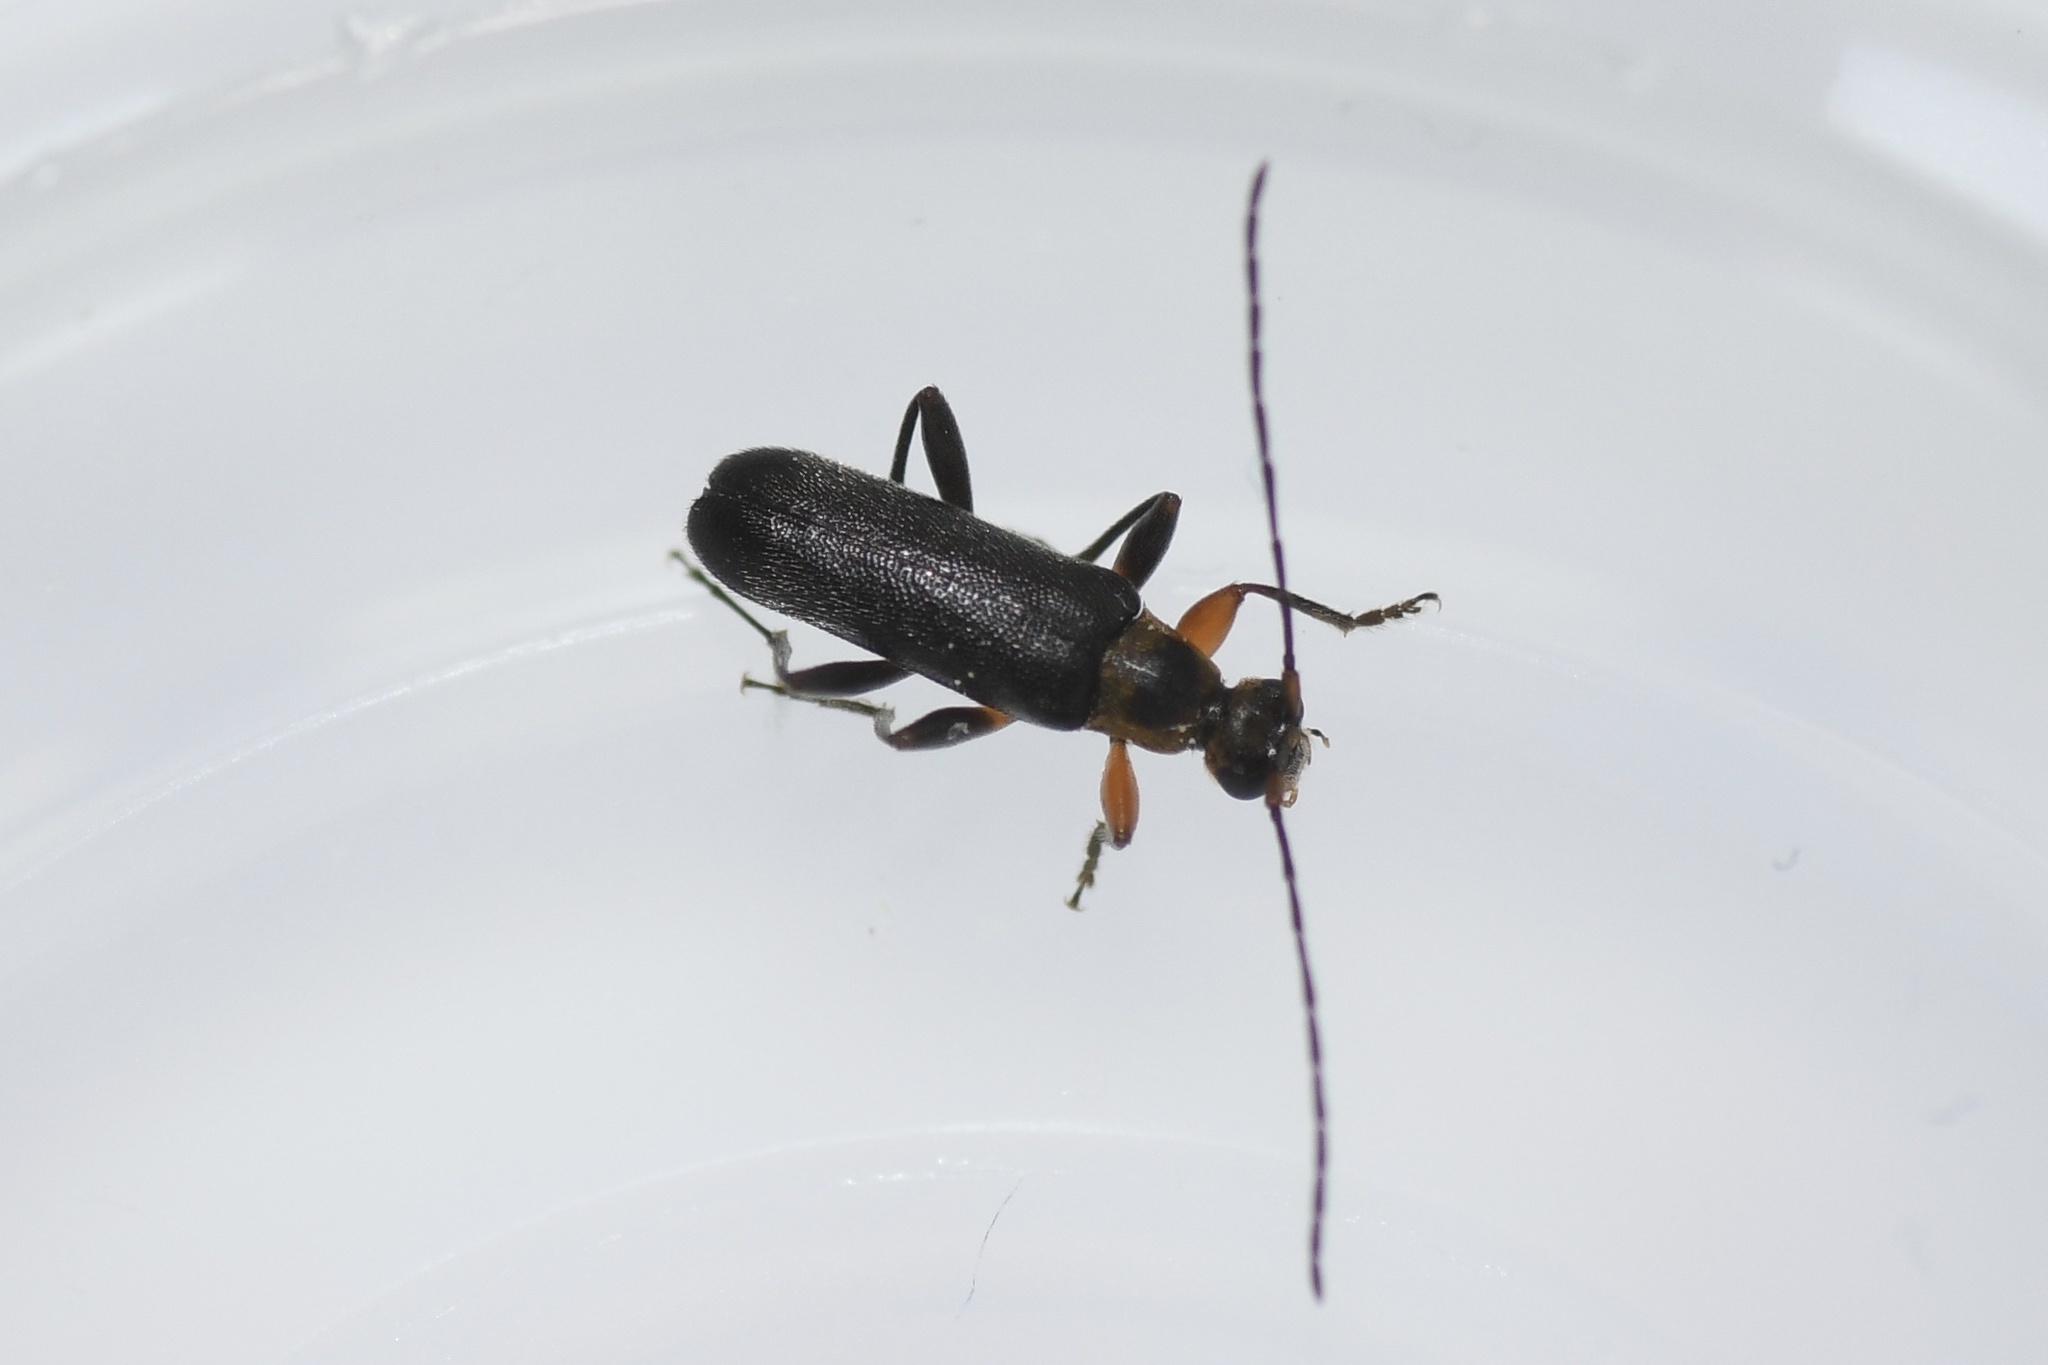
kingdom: Animalia
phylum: Arthropoda
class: Insecta
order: Coleoptera
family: Cerambycidae
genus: Grammoptera
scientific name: Grammoptera exigua
